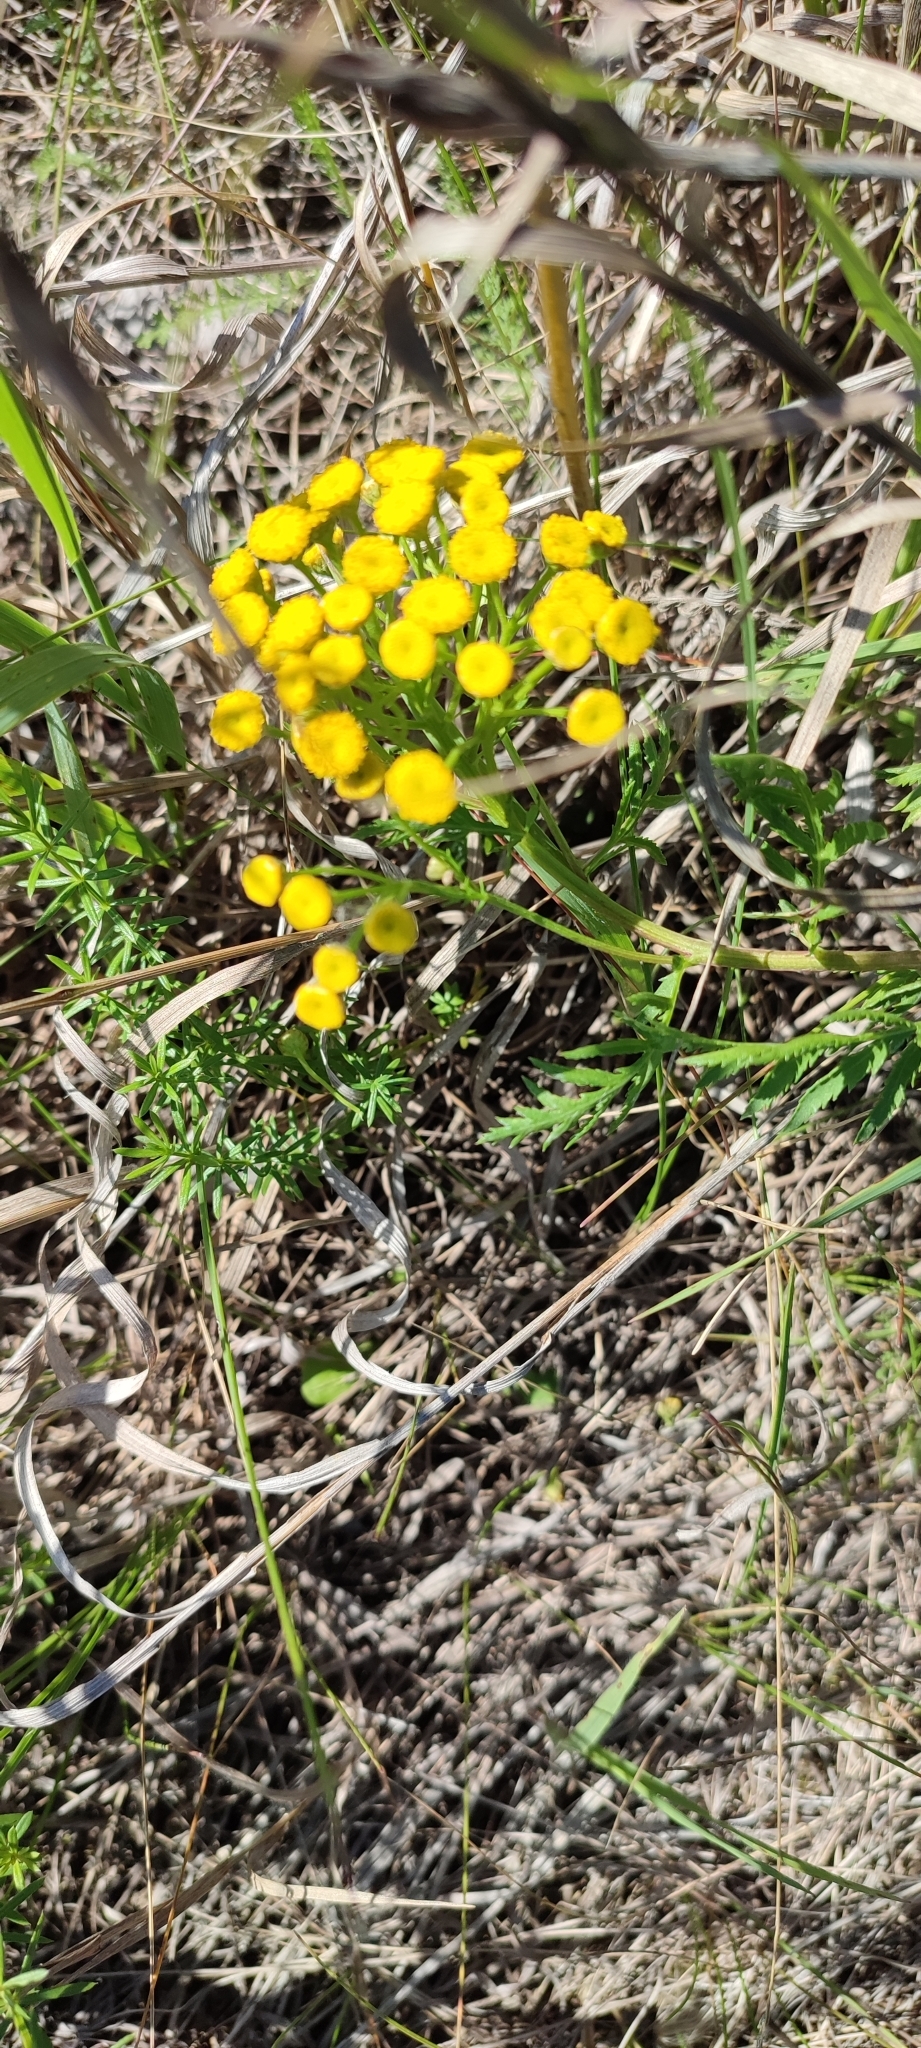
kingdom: Plantae
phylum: Tracheophyta
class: Magnoliopsida
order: Asterales
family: Asteraceae
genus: Tanacetum
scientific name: Tanacetum vulgare
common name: Common tansy
